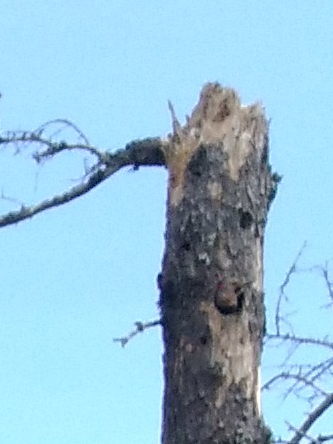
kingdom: Animalia
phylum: Chordata
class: Aves
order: Piciformes
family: Picidae
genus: Colaptes
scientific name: Colaptes auratus
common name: Northern flicker
